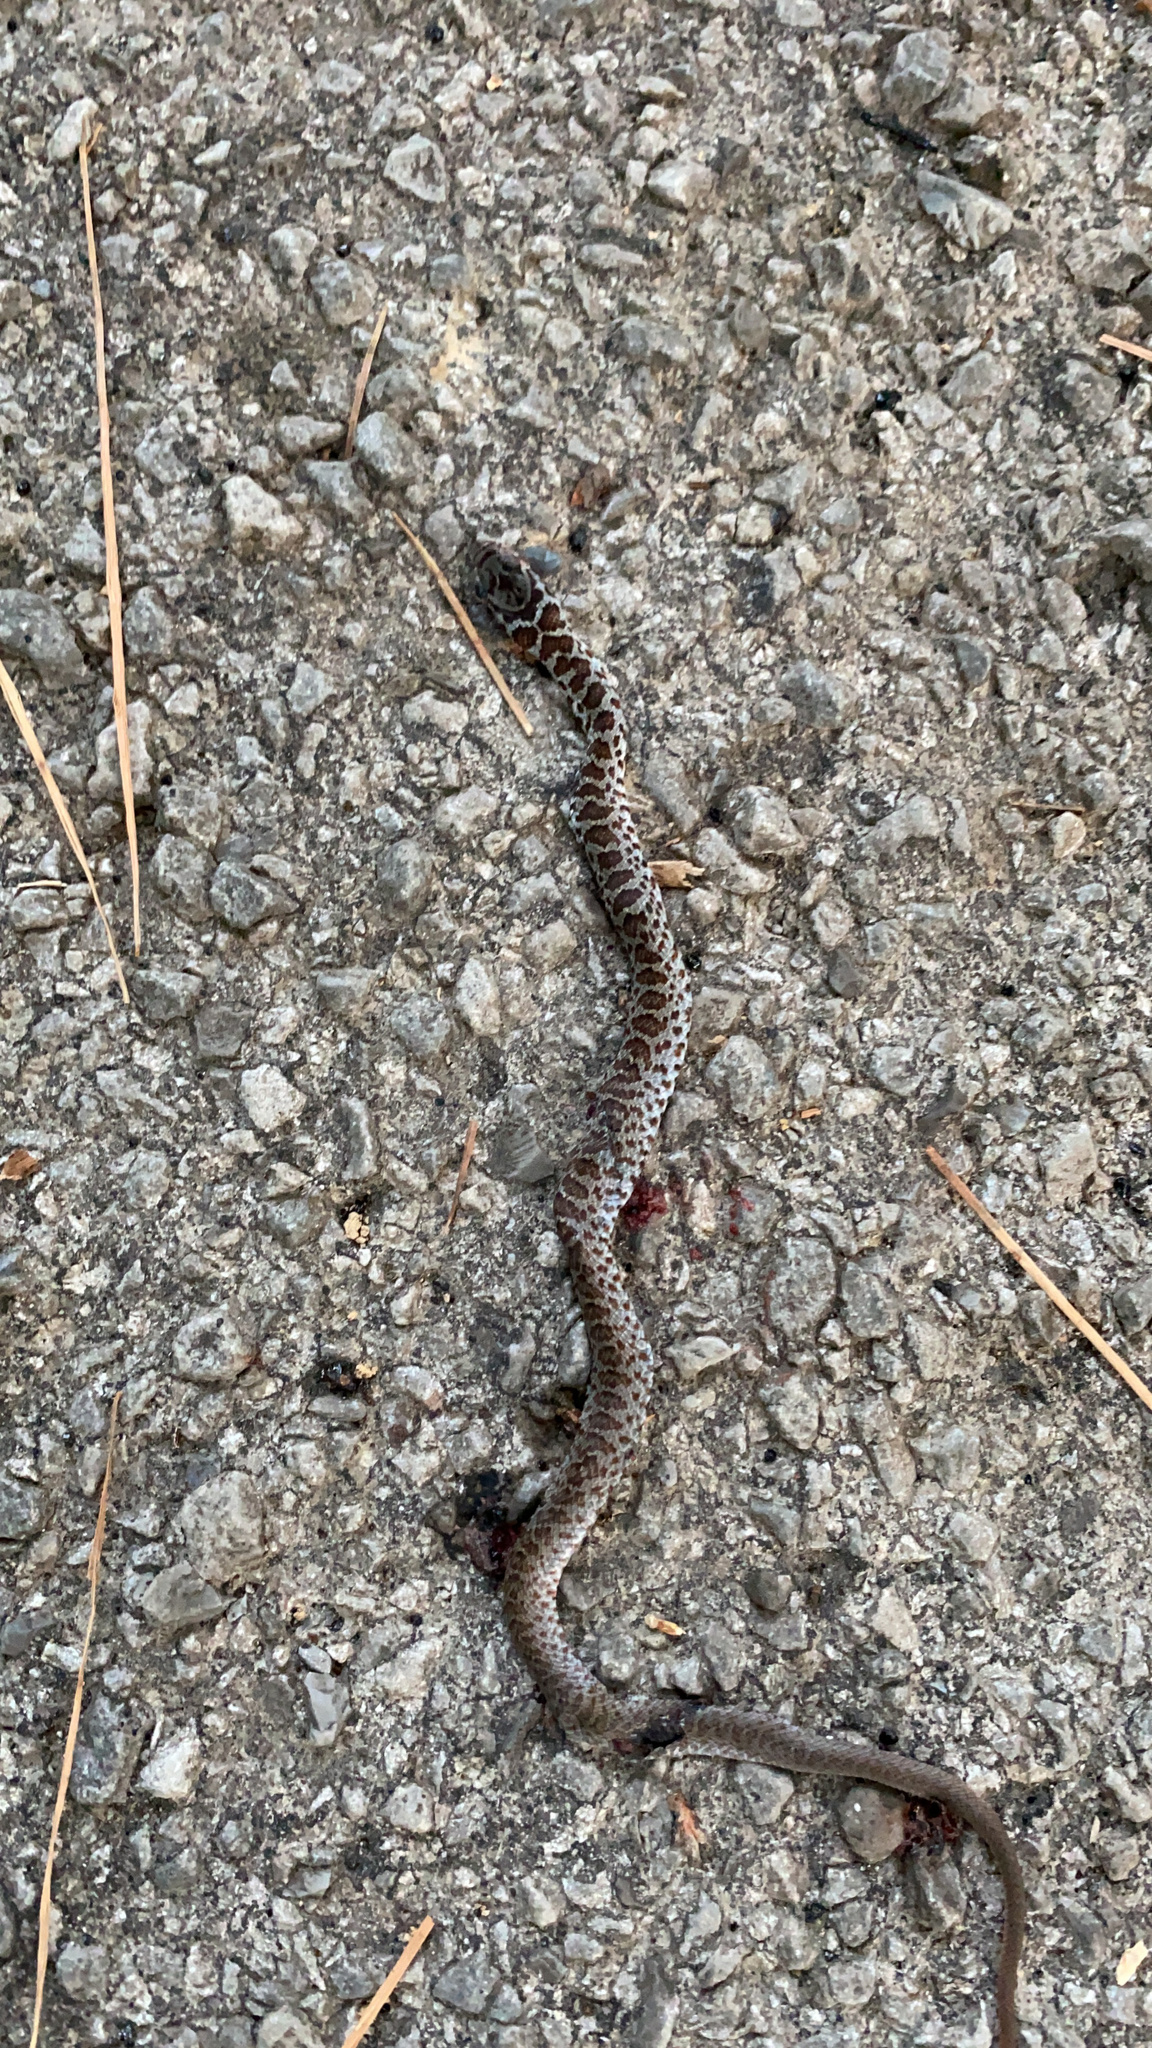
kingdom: Animalia
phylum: Chordata
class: Squamata
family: Colubridae
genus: Coluber
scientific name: Coluber constrictor
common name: Eastern racer
